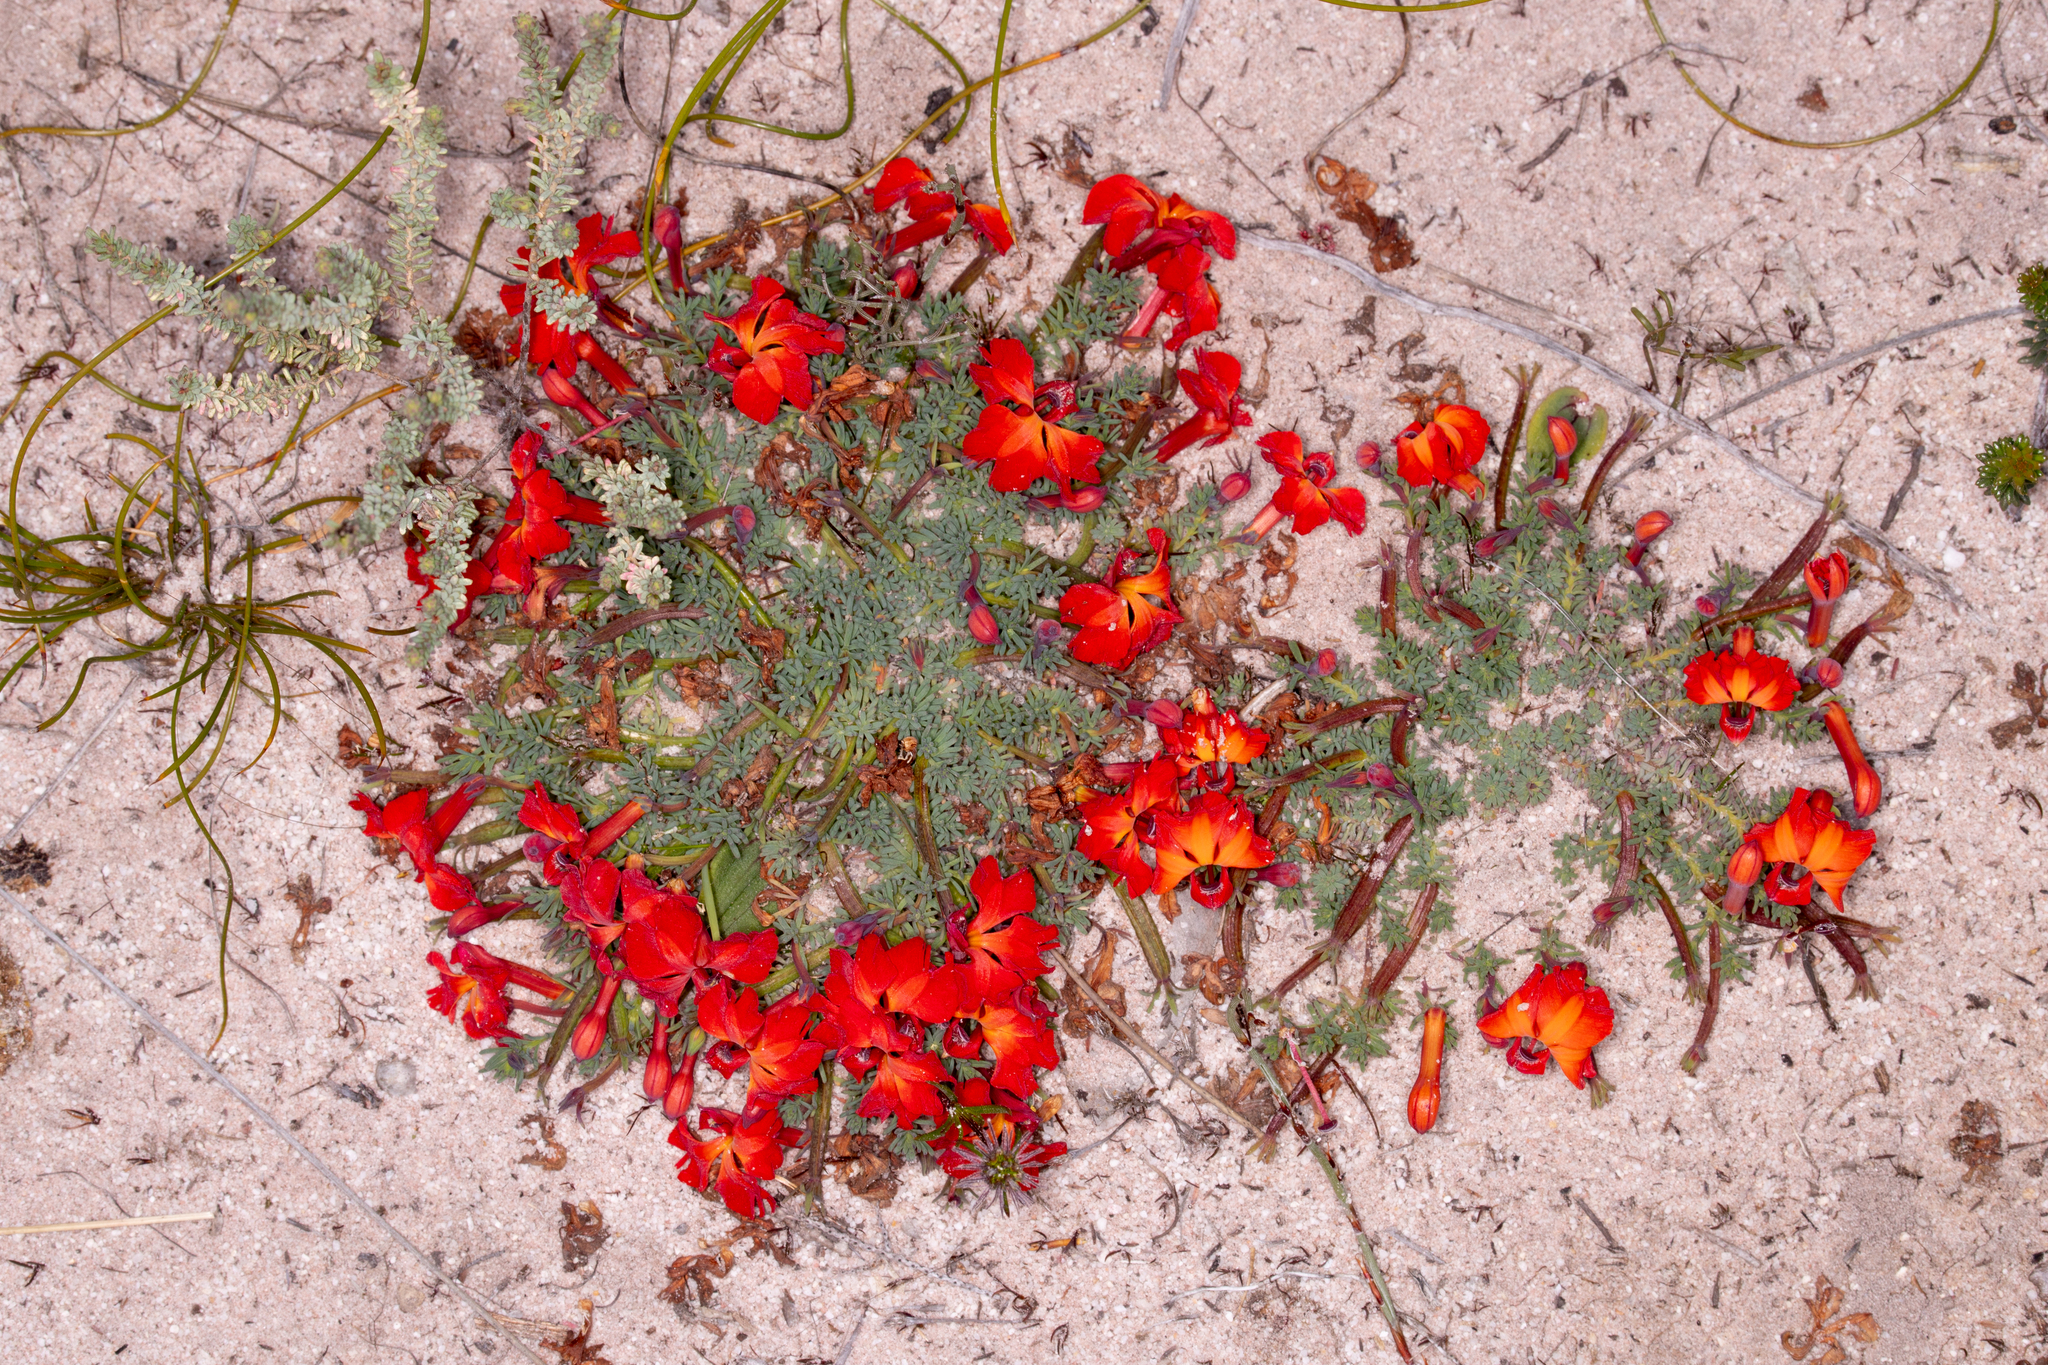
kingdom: Plantae
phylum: Tracheophyta
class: Magnoliopsida
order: Asterales
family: Goodeniaceae
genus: Lechenaultia
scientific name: Lechenaultia formosa
